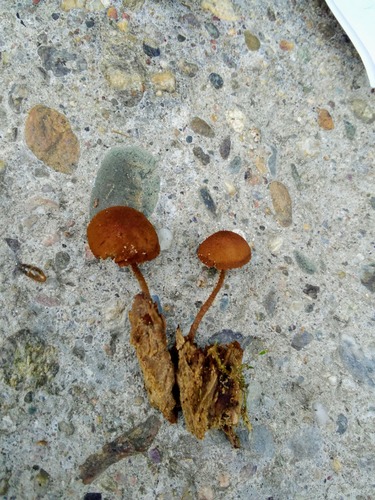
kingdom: Fungi
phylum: Basidiomycota
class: Agaricomycetes
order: Agaricales
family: Tubariaceae
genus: Flammulaster
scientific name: Flammulaster muricatus
